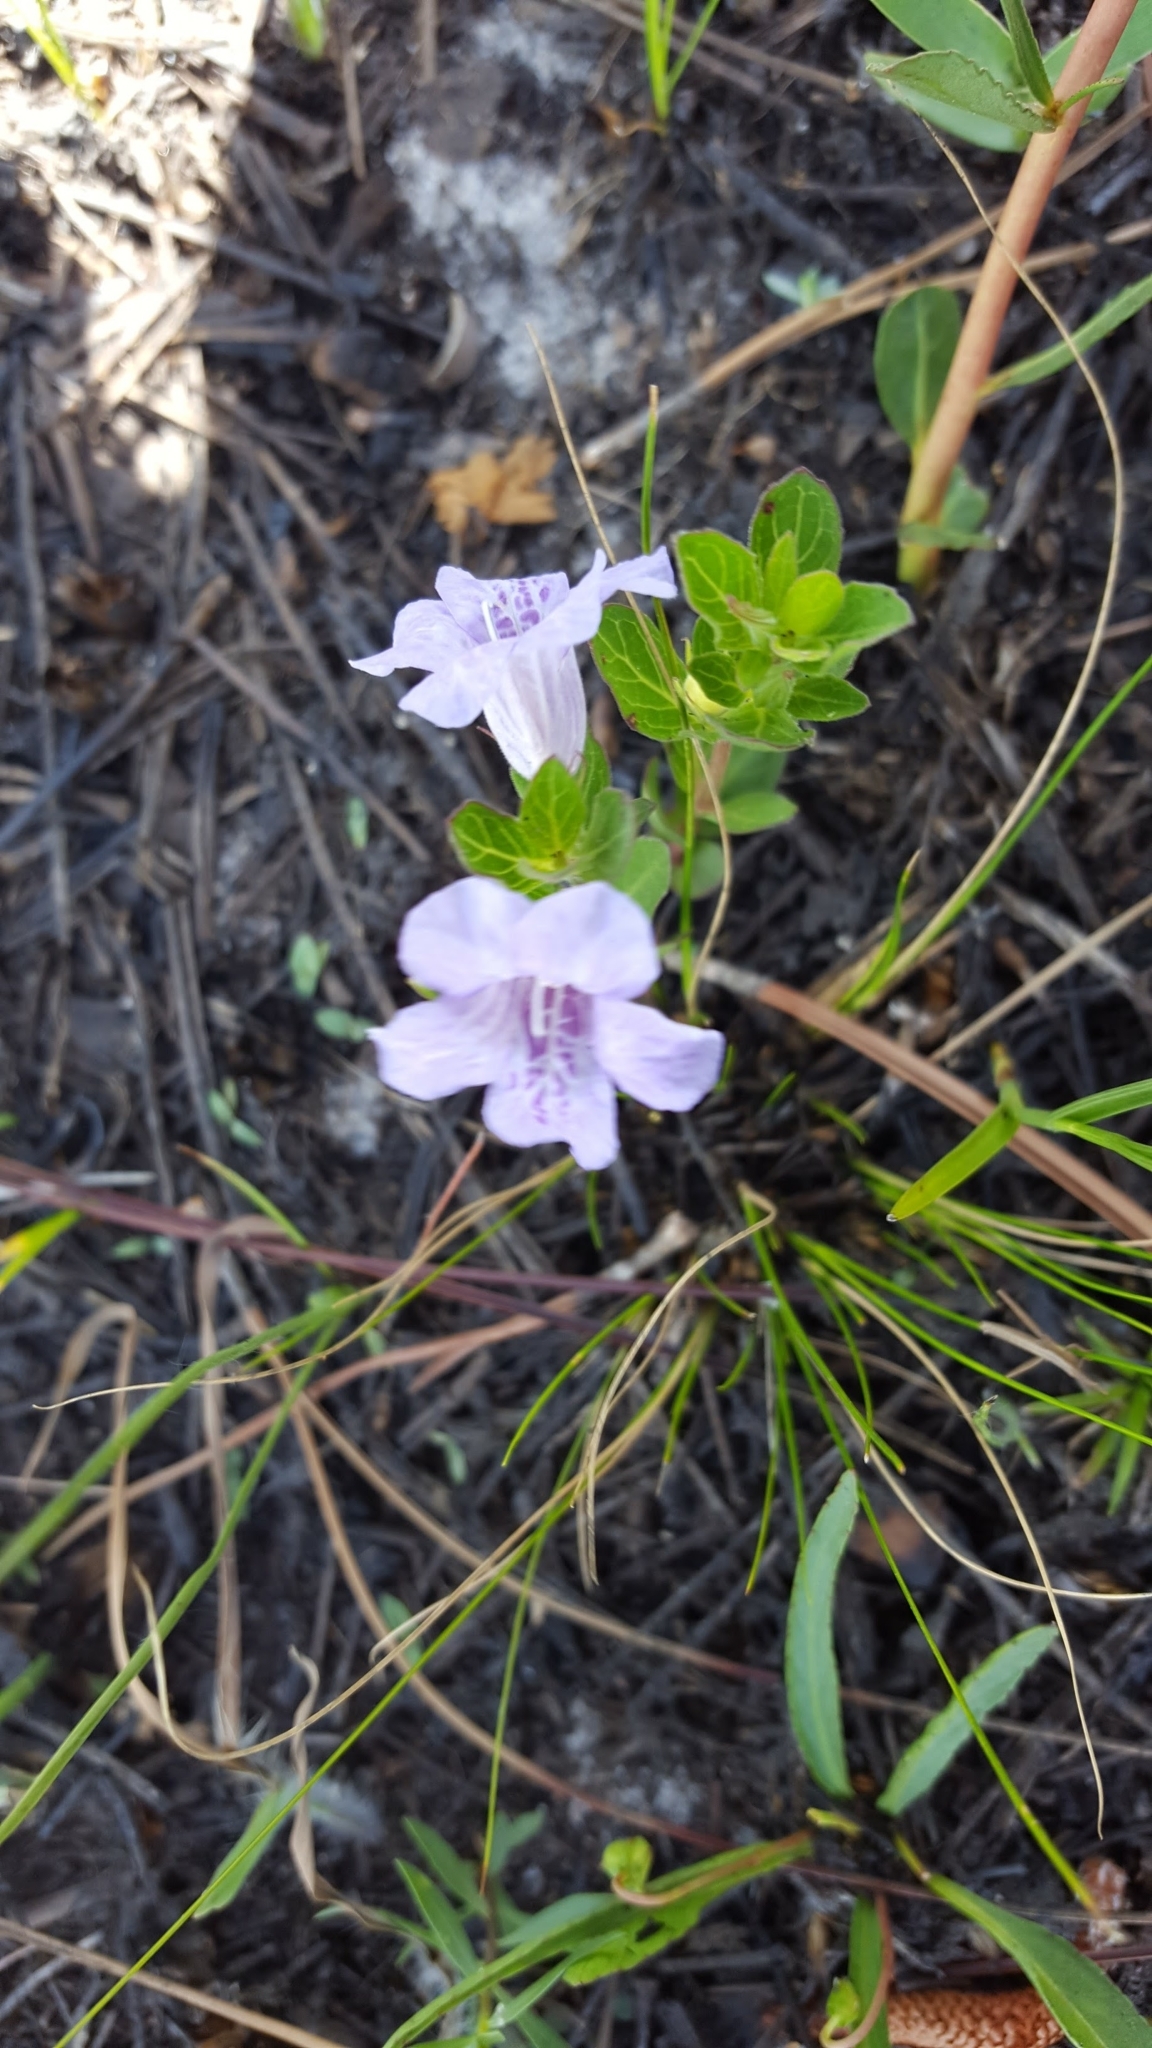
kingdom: Plantae
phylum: Tracheophyta
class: Magnoliopsida
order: Lamiales
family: Acanthaceae
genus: Dyschoriste
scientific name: Dyschoriste oblongifolia
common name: Blue twinflower
